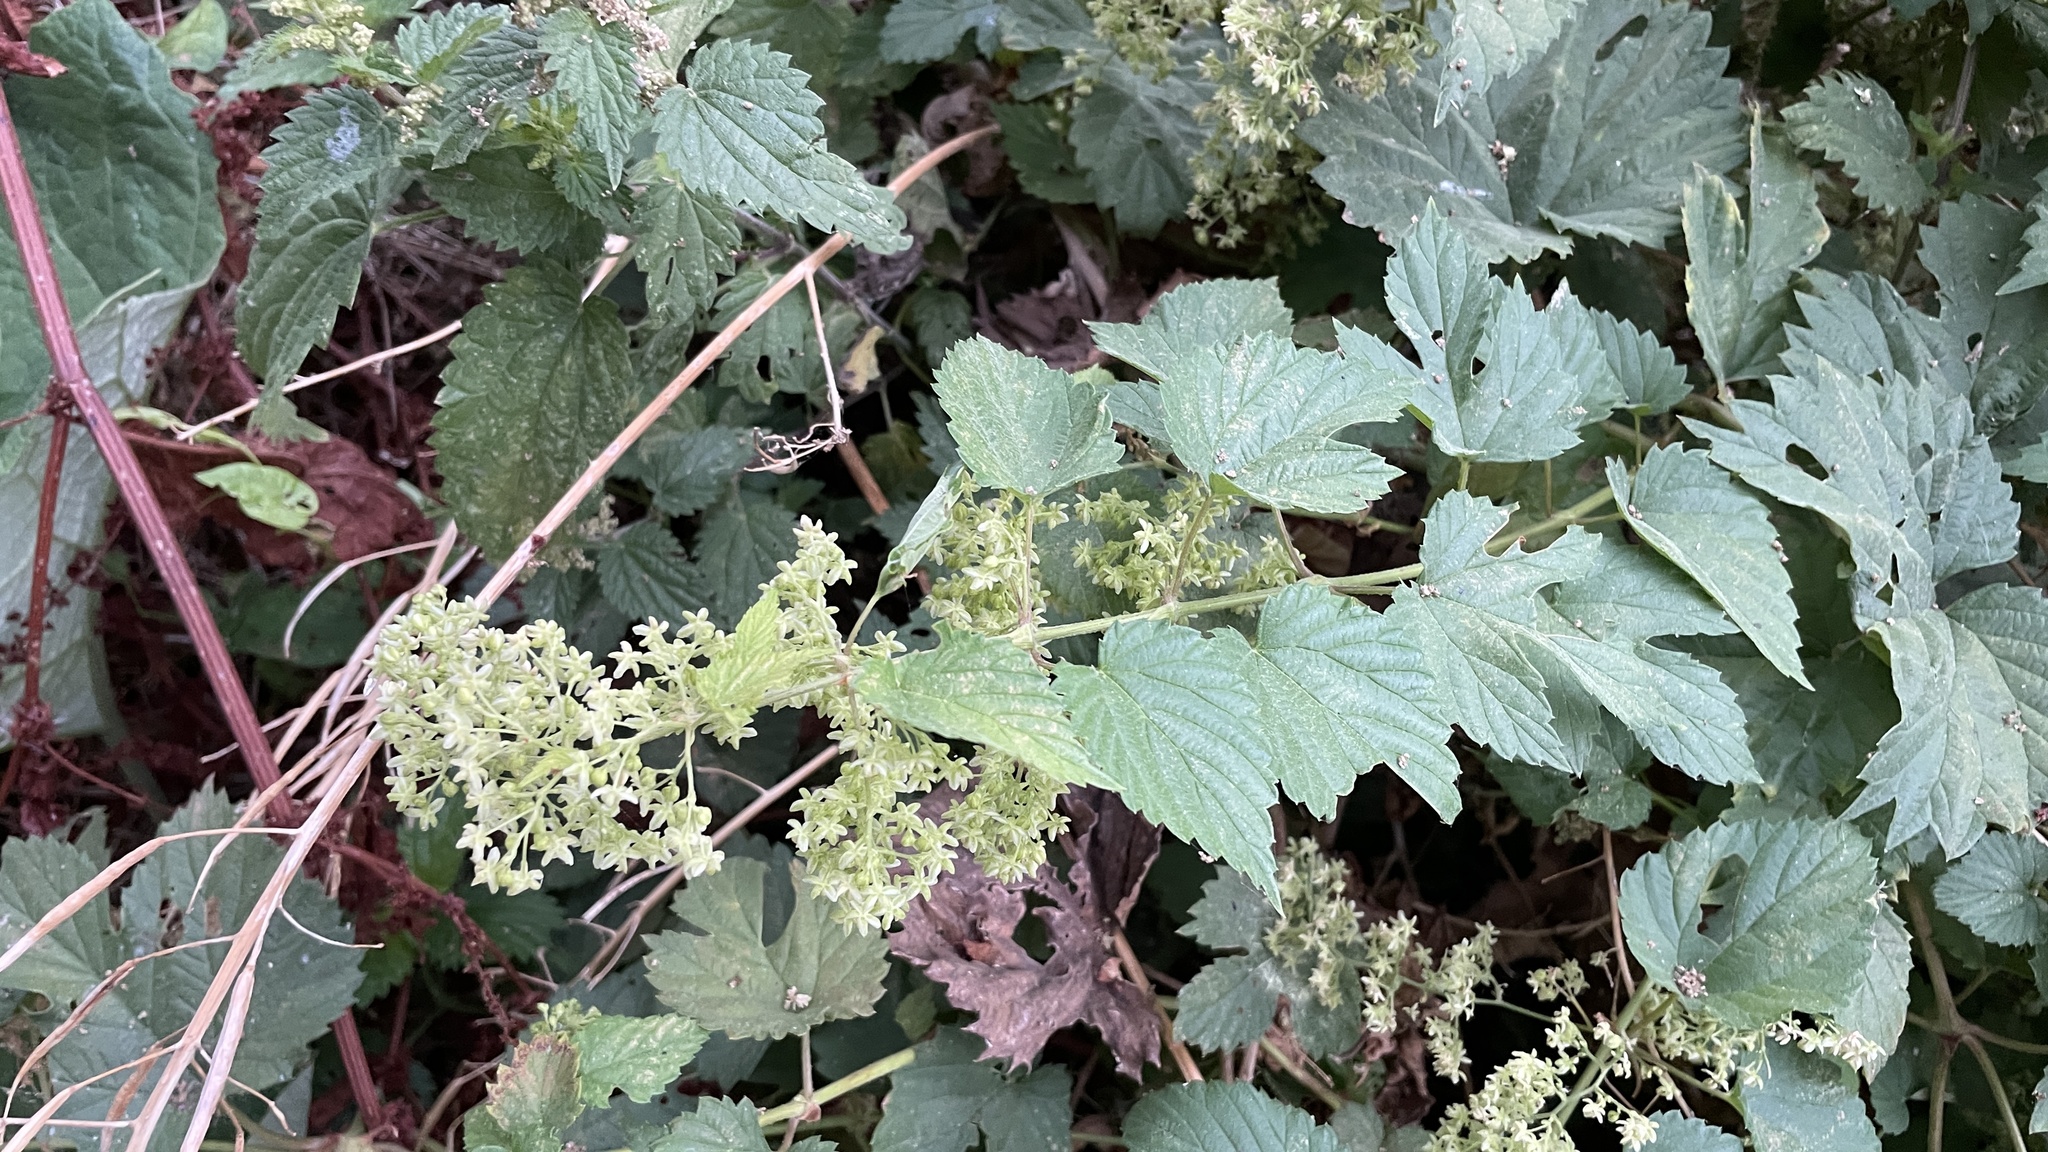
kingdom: Plantae
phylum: Tracheophyta
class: Magnoliopsida
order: Rosales
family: Cannabaceae
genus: Humulus
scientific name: Humulus lupulus
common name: Hop
